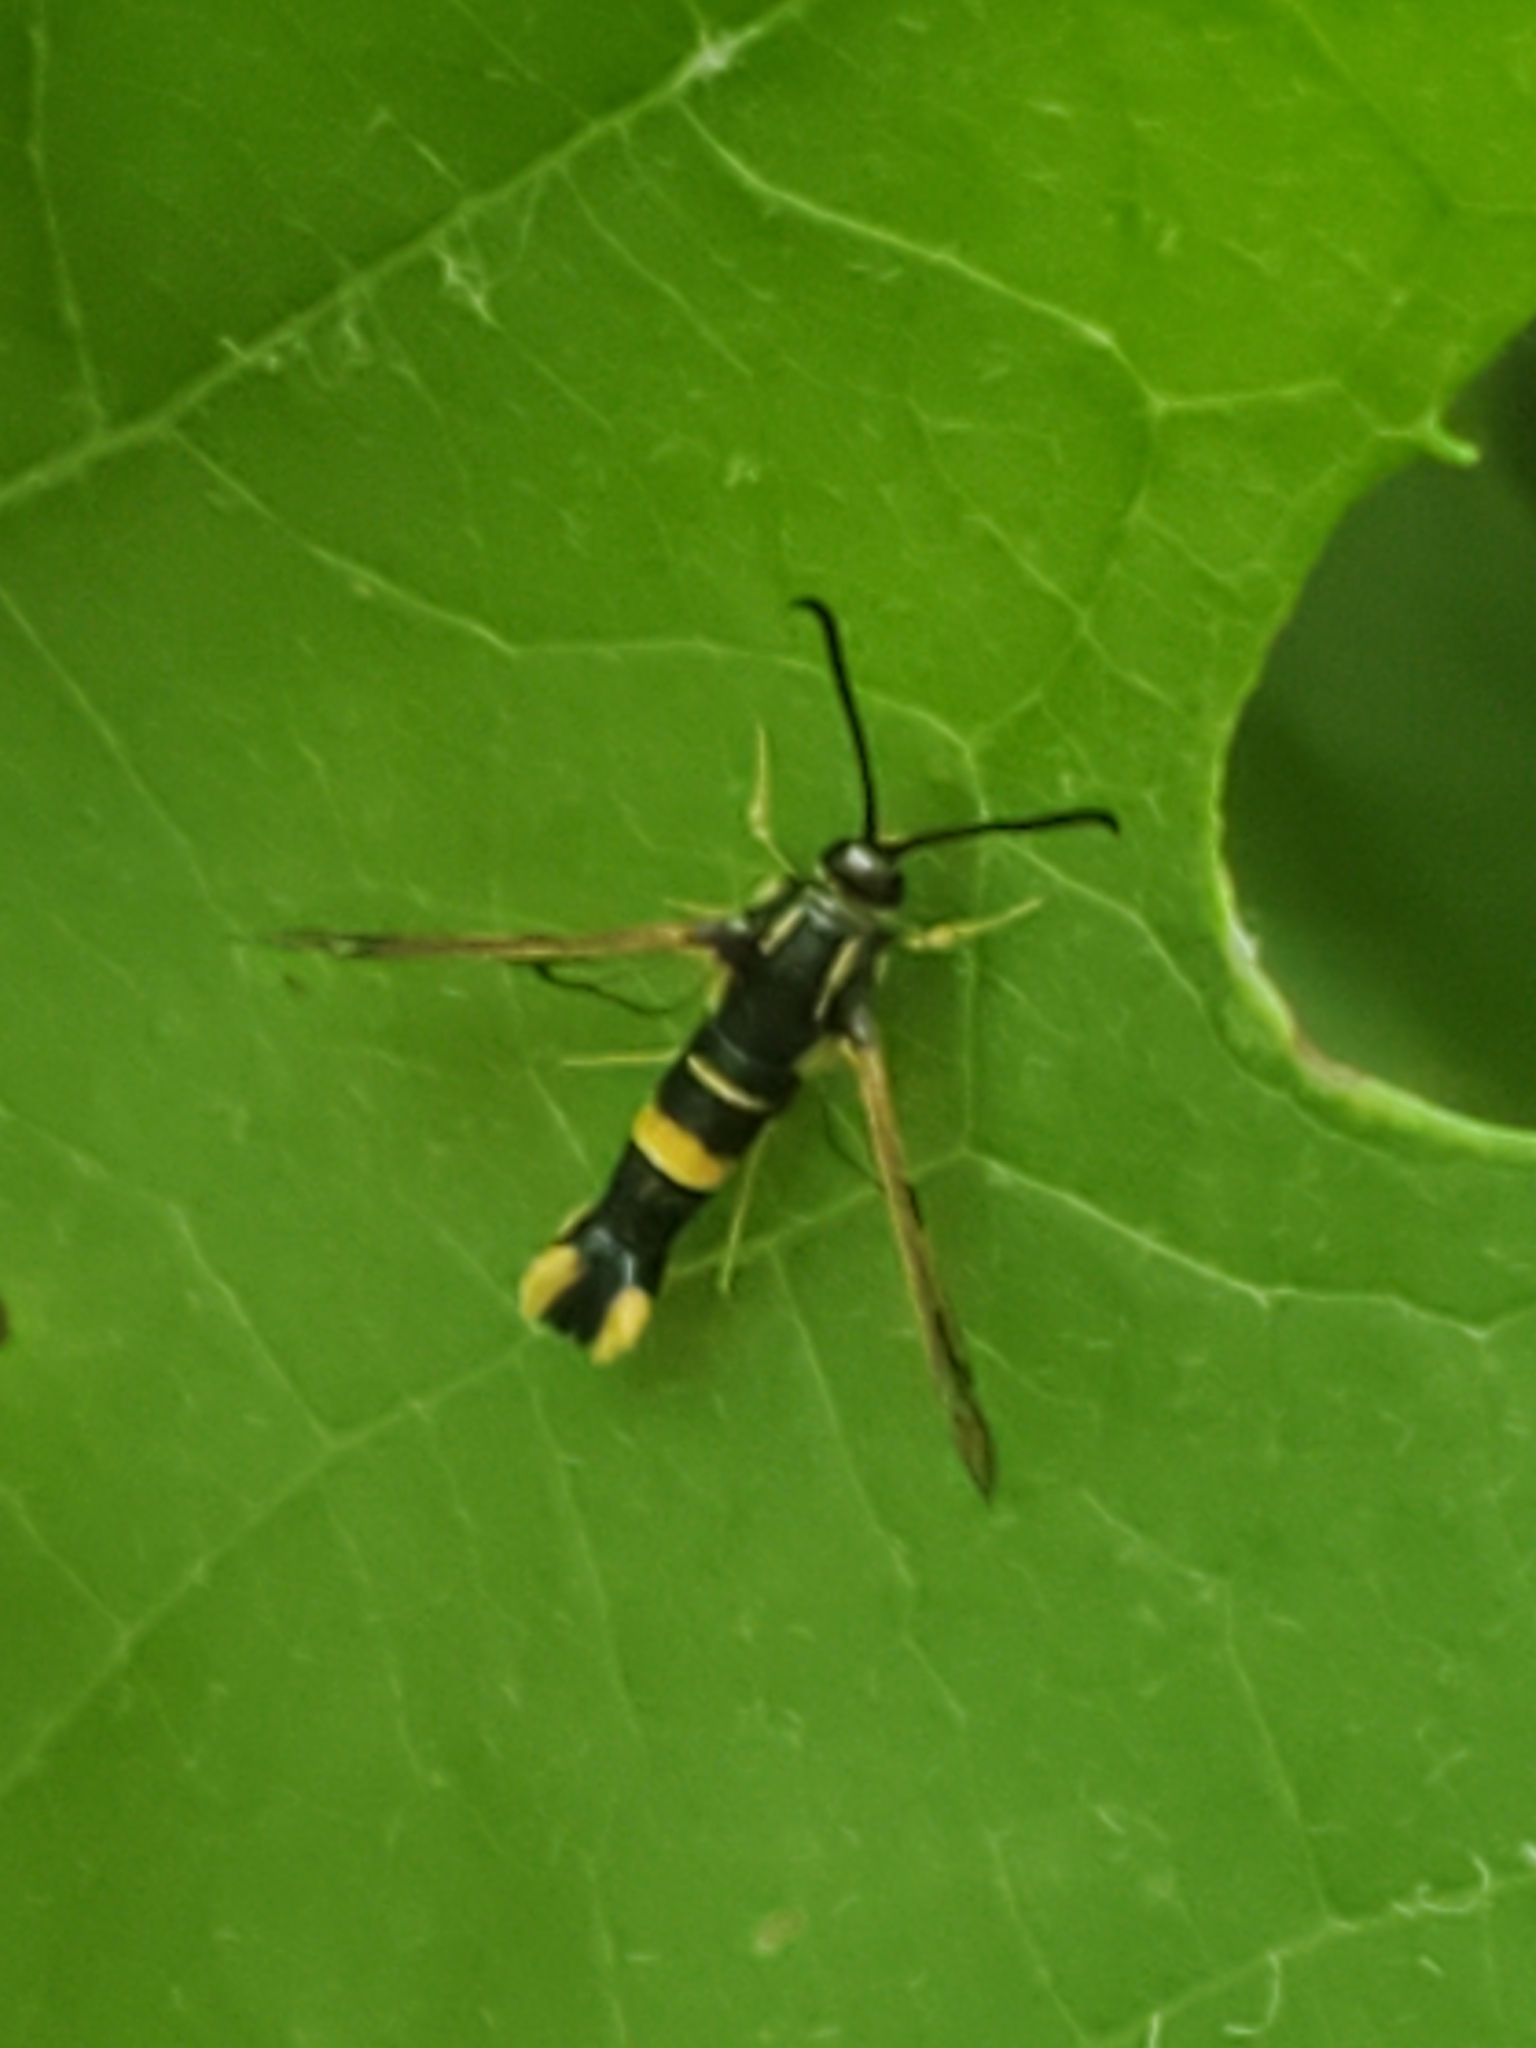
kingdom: Animalia
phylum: Arthropoda
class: Insecta
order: Lepidoptera
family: Sesiidae
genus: Synanthedon
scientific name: Synanthedon scitula
